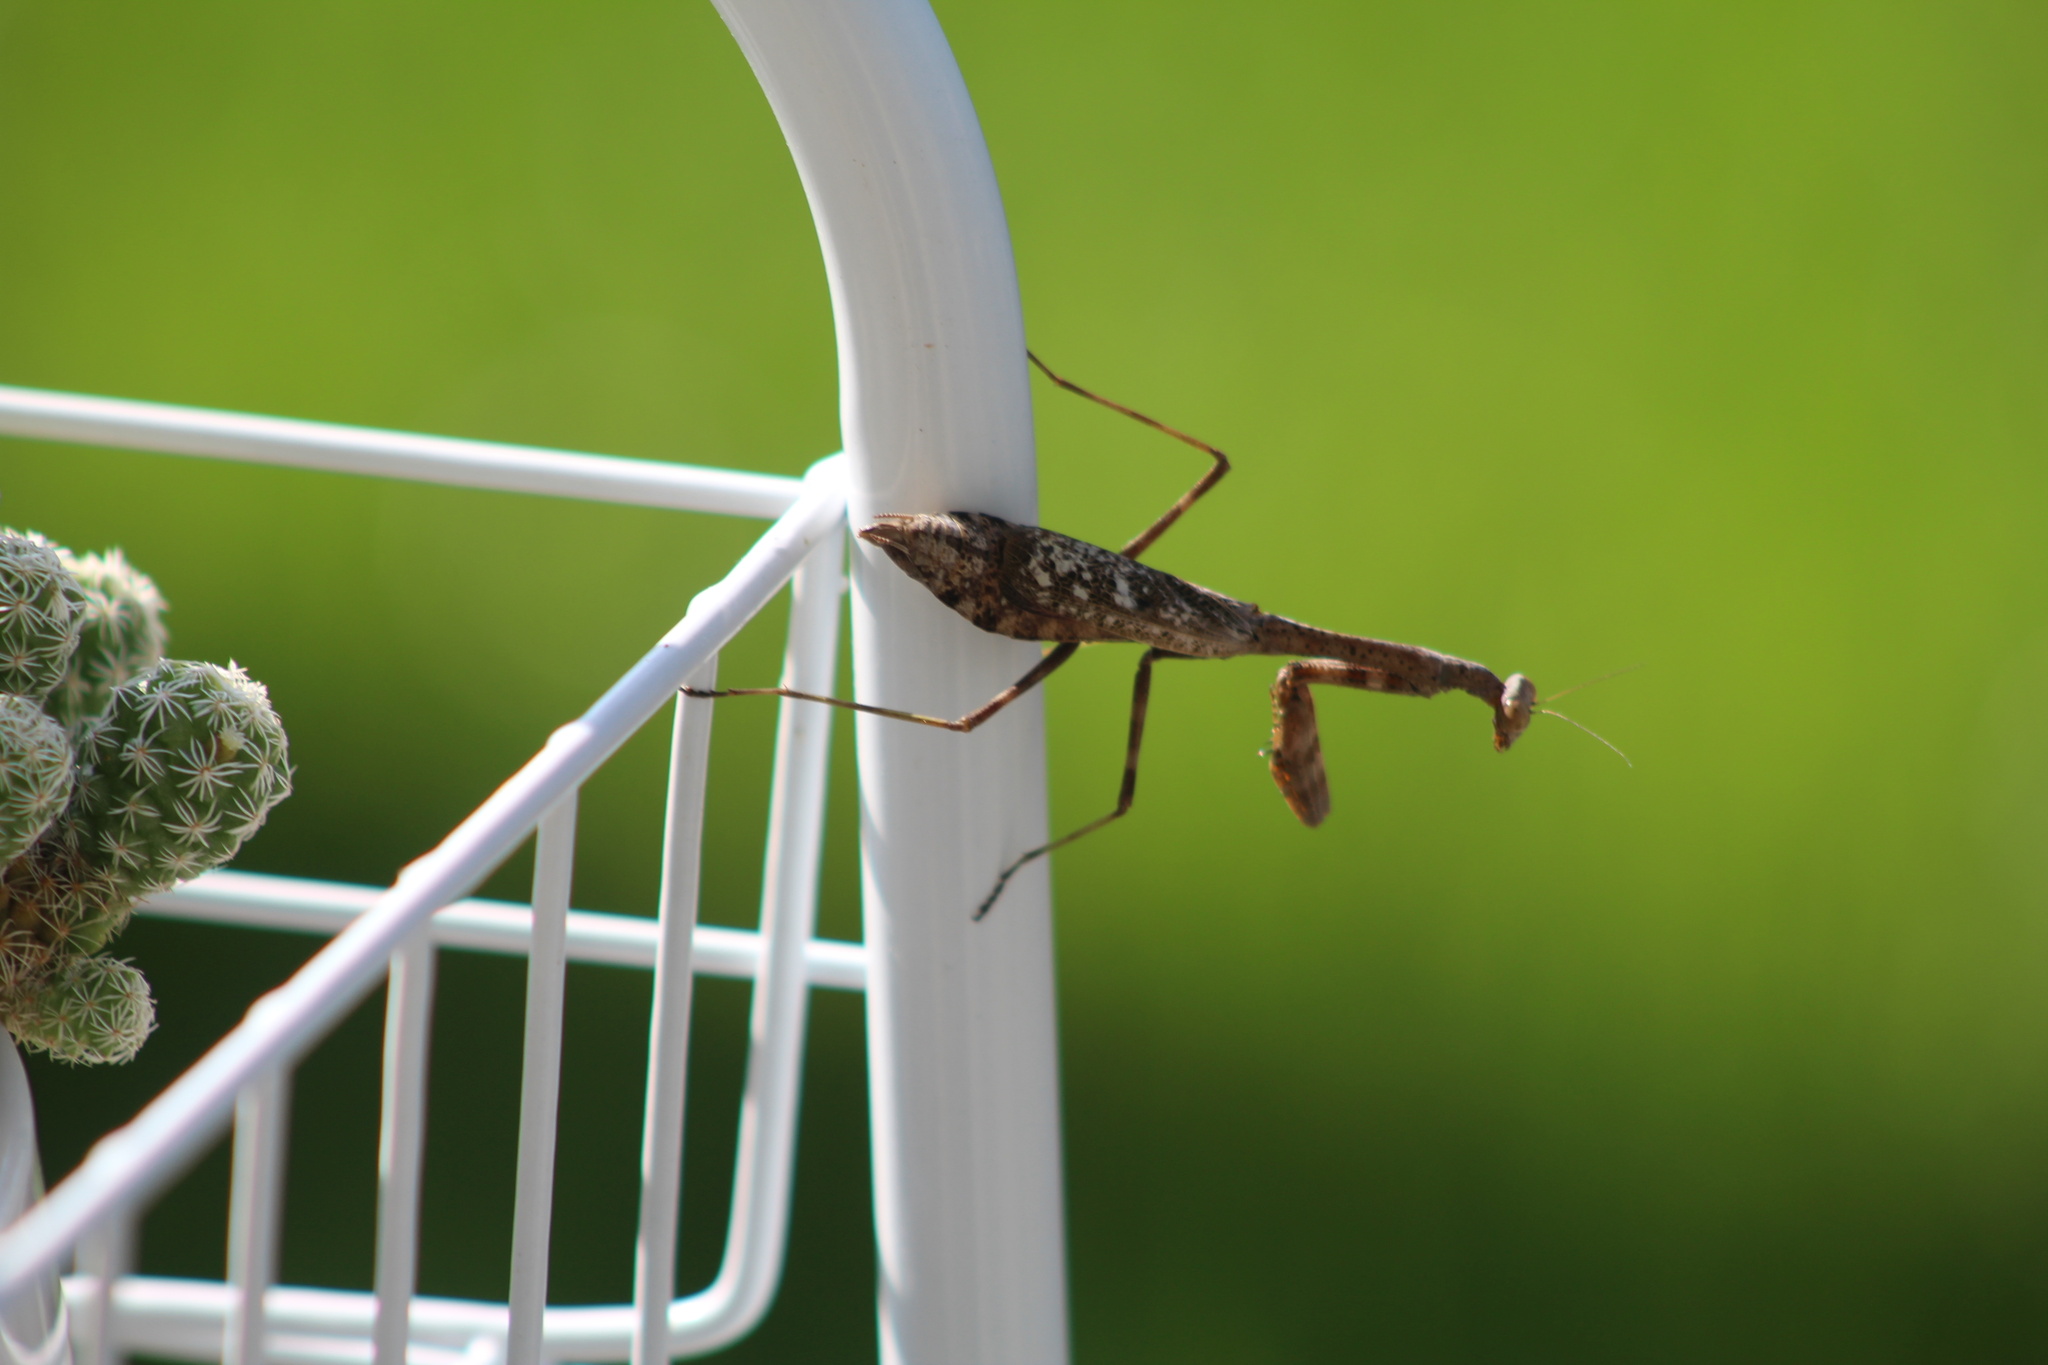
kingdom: Animalia
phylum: Arthropoda
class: Insecta
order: Mantodea
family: Mantidae
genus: Stagmomantis
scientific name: Stagmomantis carolina
